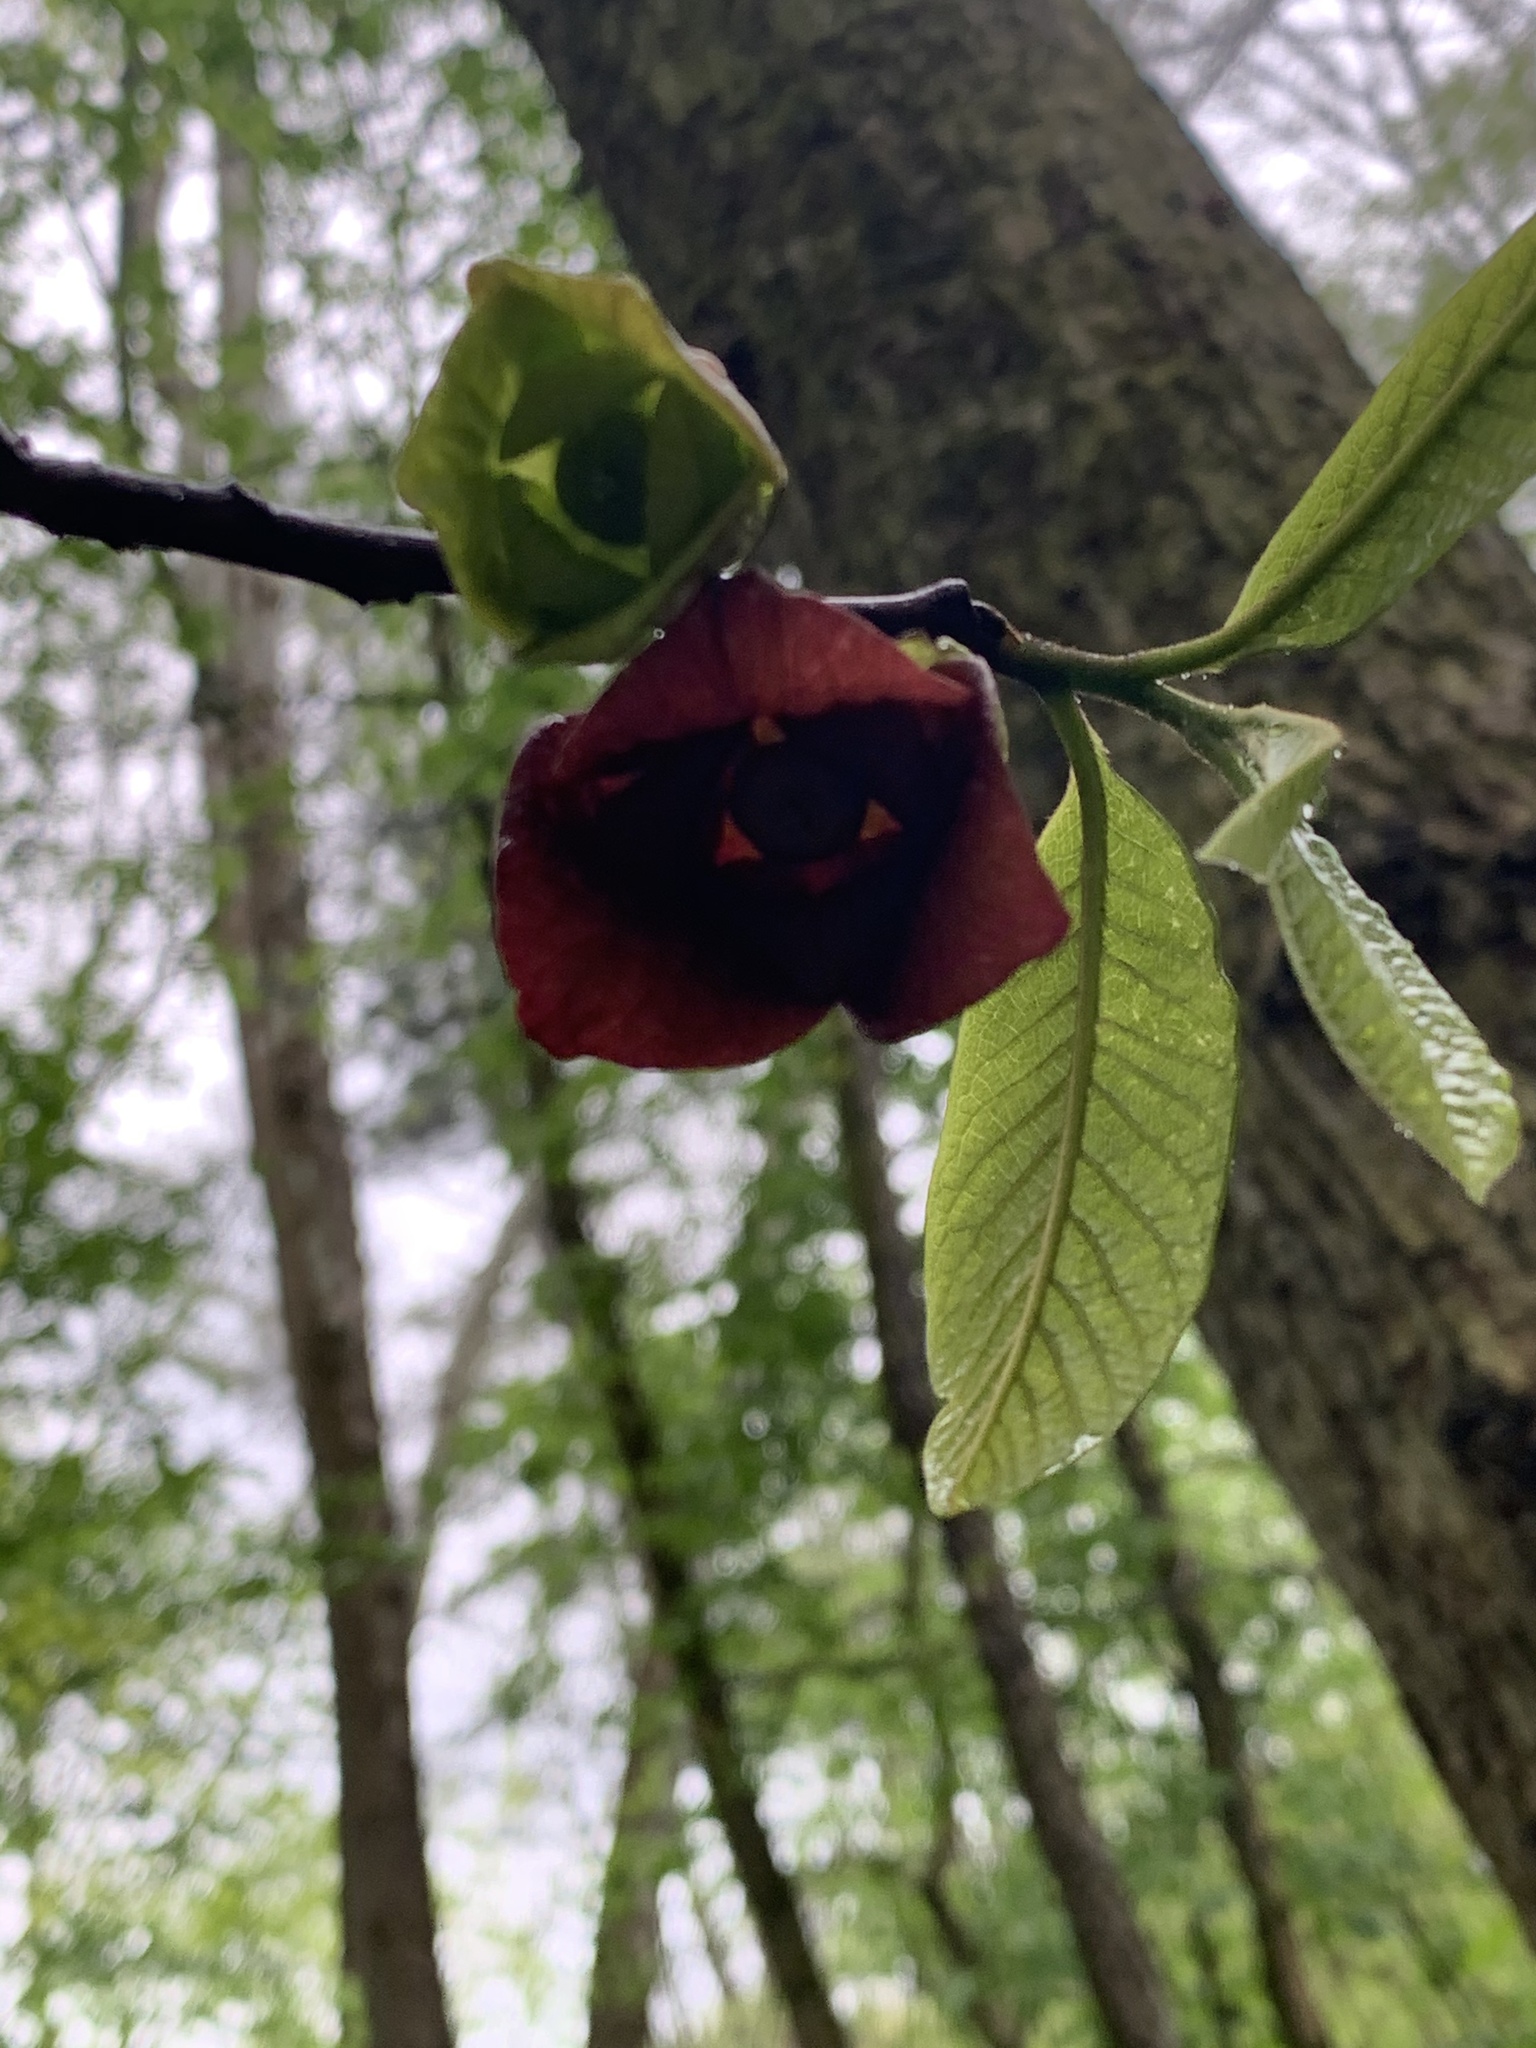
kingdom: Plantae
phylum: Tracheophyta
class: Magnoliopsida
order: Magnoliales
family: Annonaceae
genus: Asimina
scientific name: Asimina triloba
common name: Dog-banana
